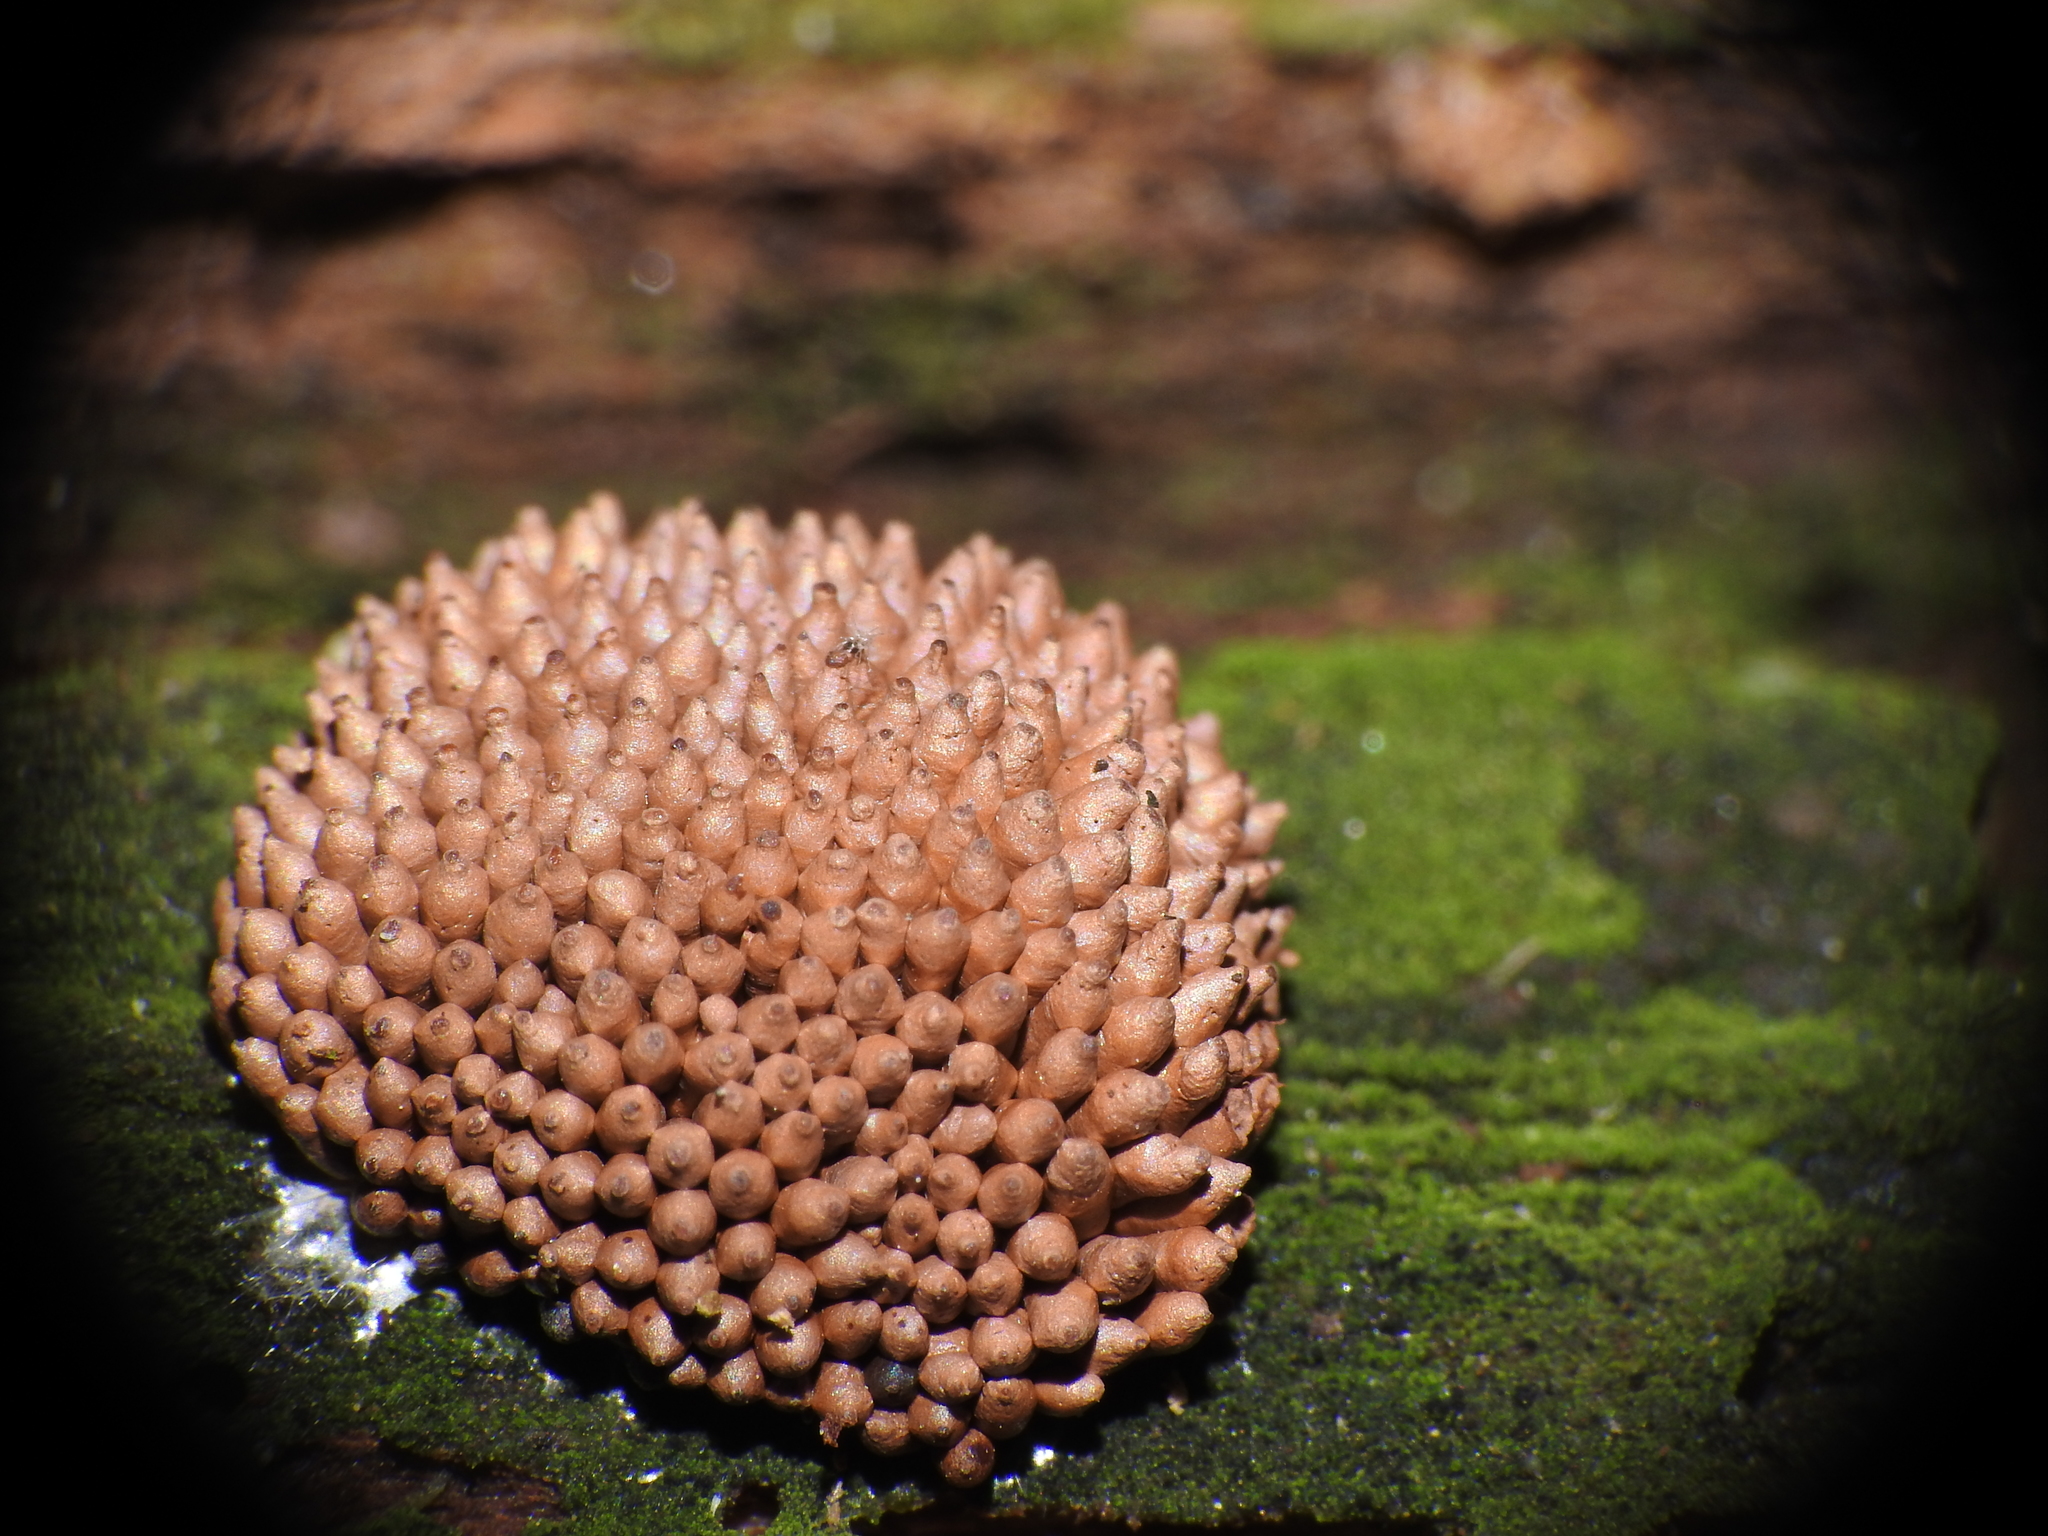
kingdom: Protozoa
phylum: Mycetozoa
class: Myxomycetes
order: Cribrariales
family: Tubiferaceae
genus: Tubifera
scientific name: Tubifera ferruginosa
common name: Red raspberry slime mold
